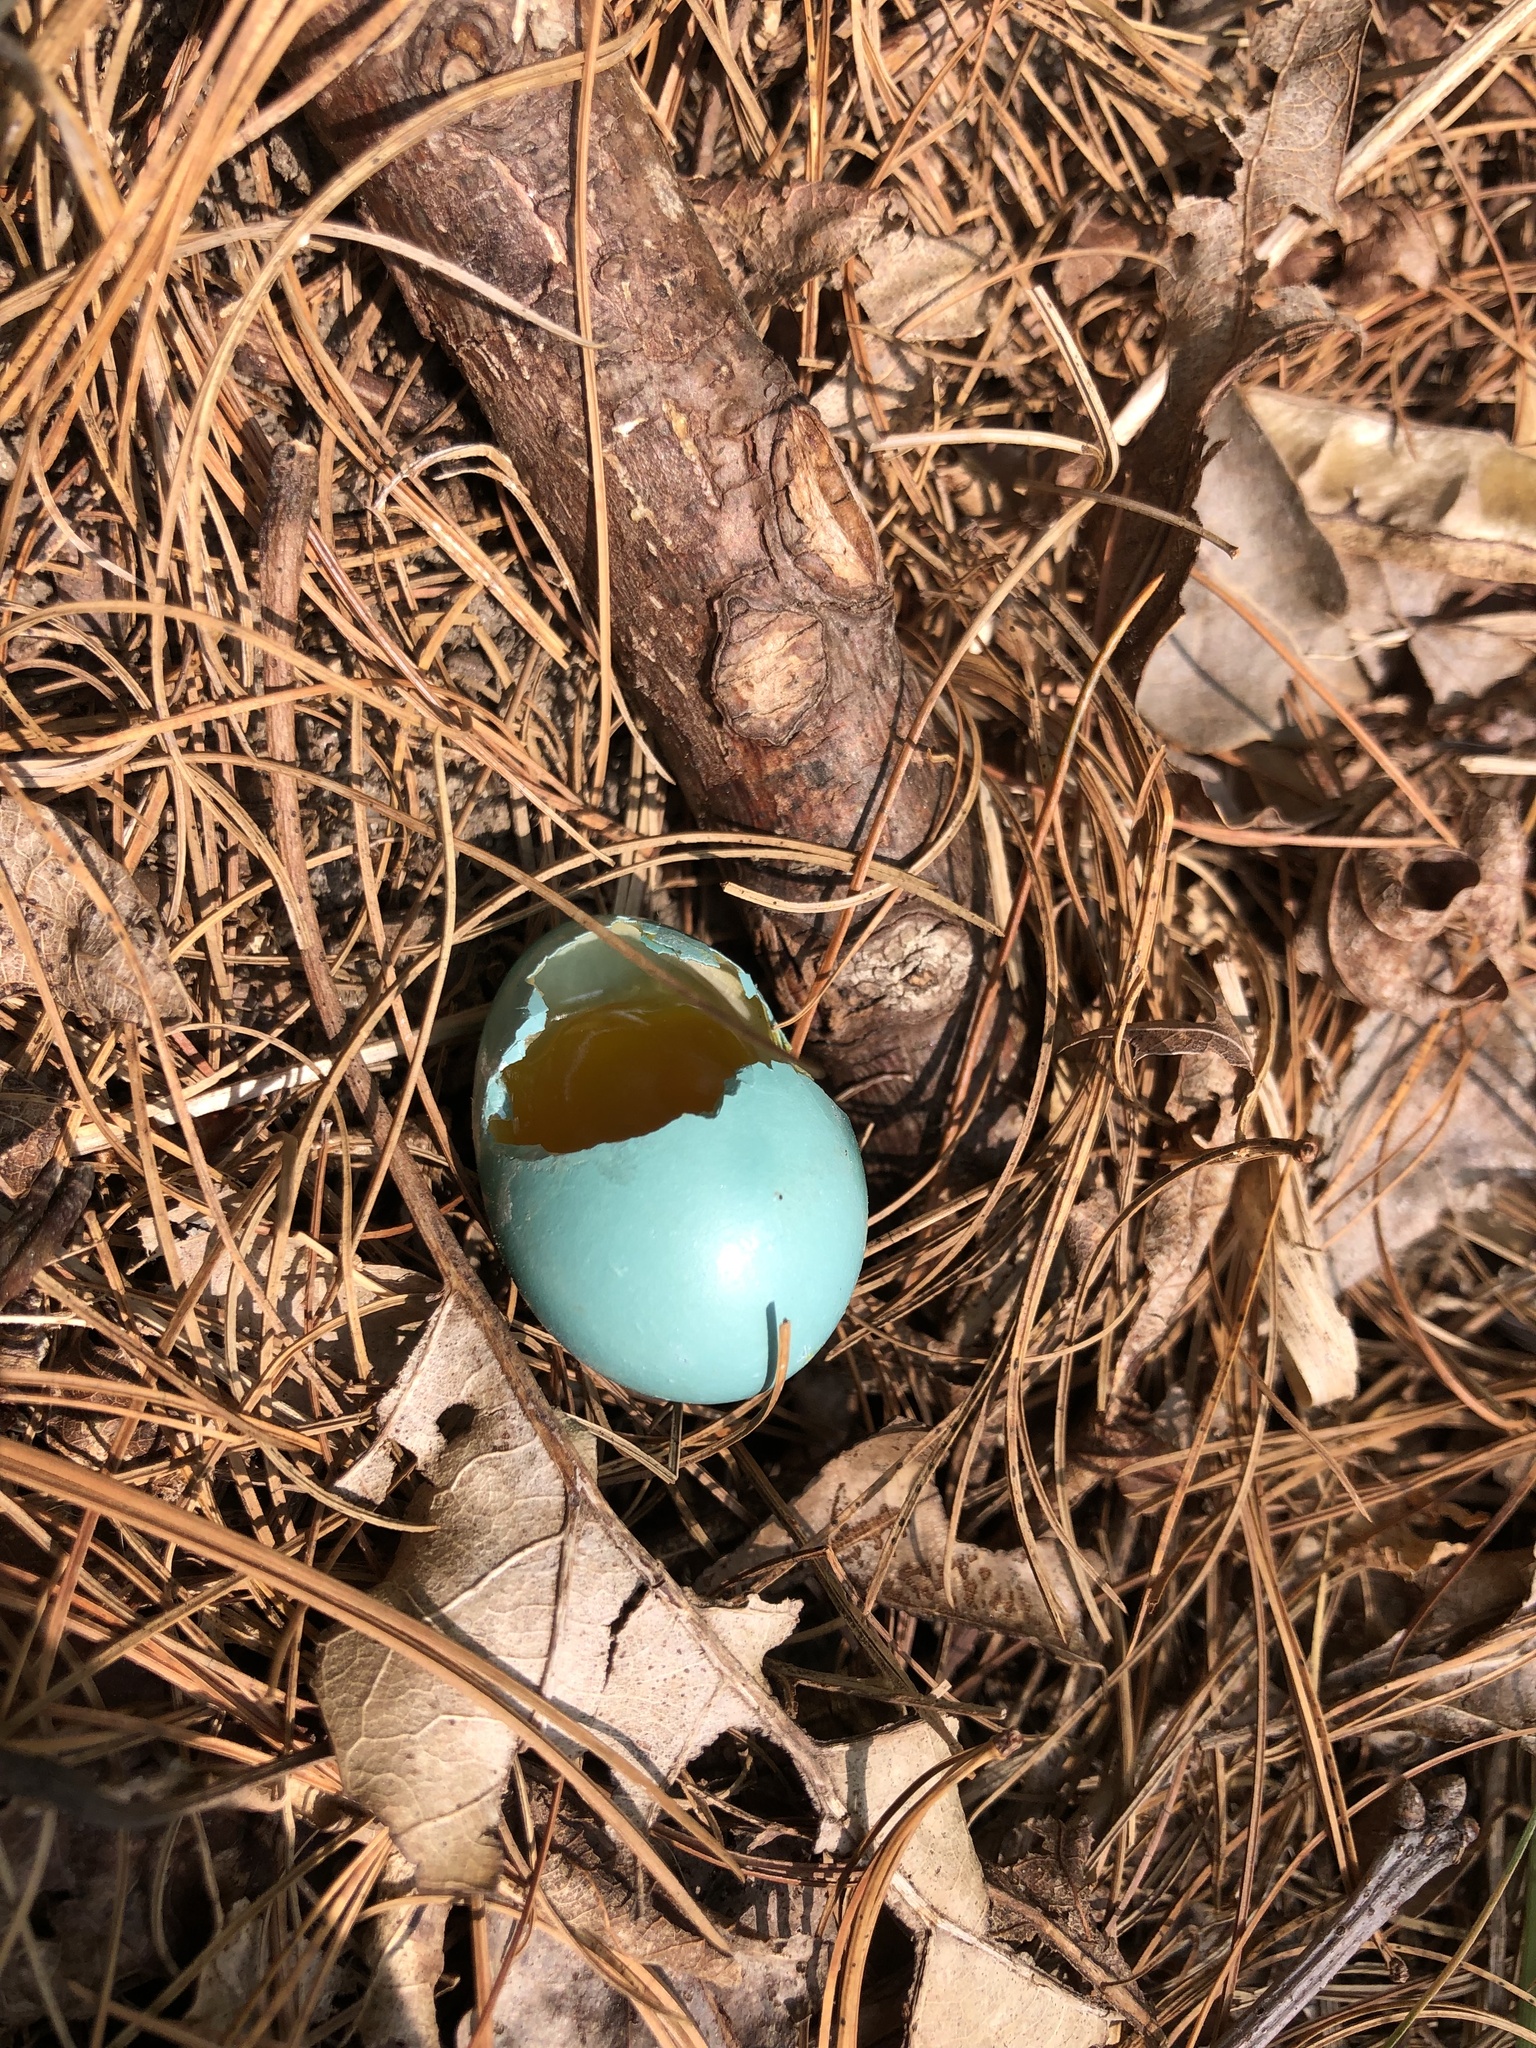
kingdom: Animalia
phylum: Chordata
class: Aves
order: Passeriformes
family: Turdidae
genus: Turdus
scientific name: Turdus migratorius
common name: American robin
